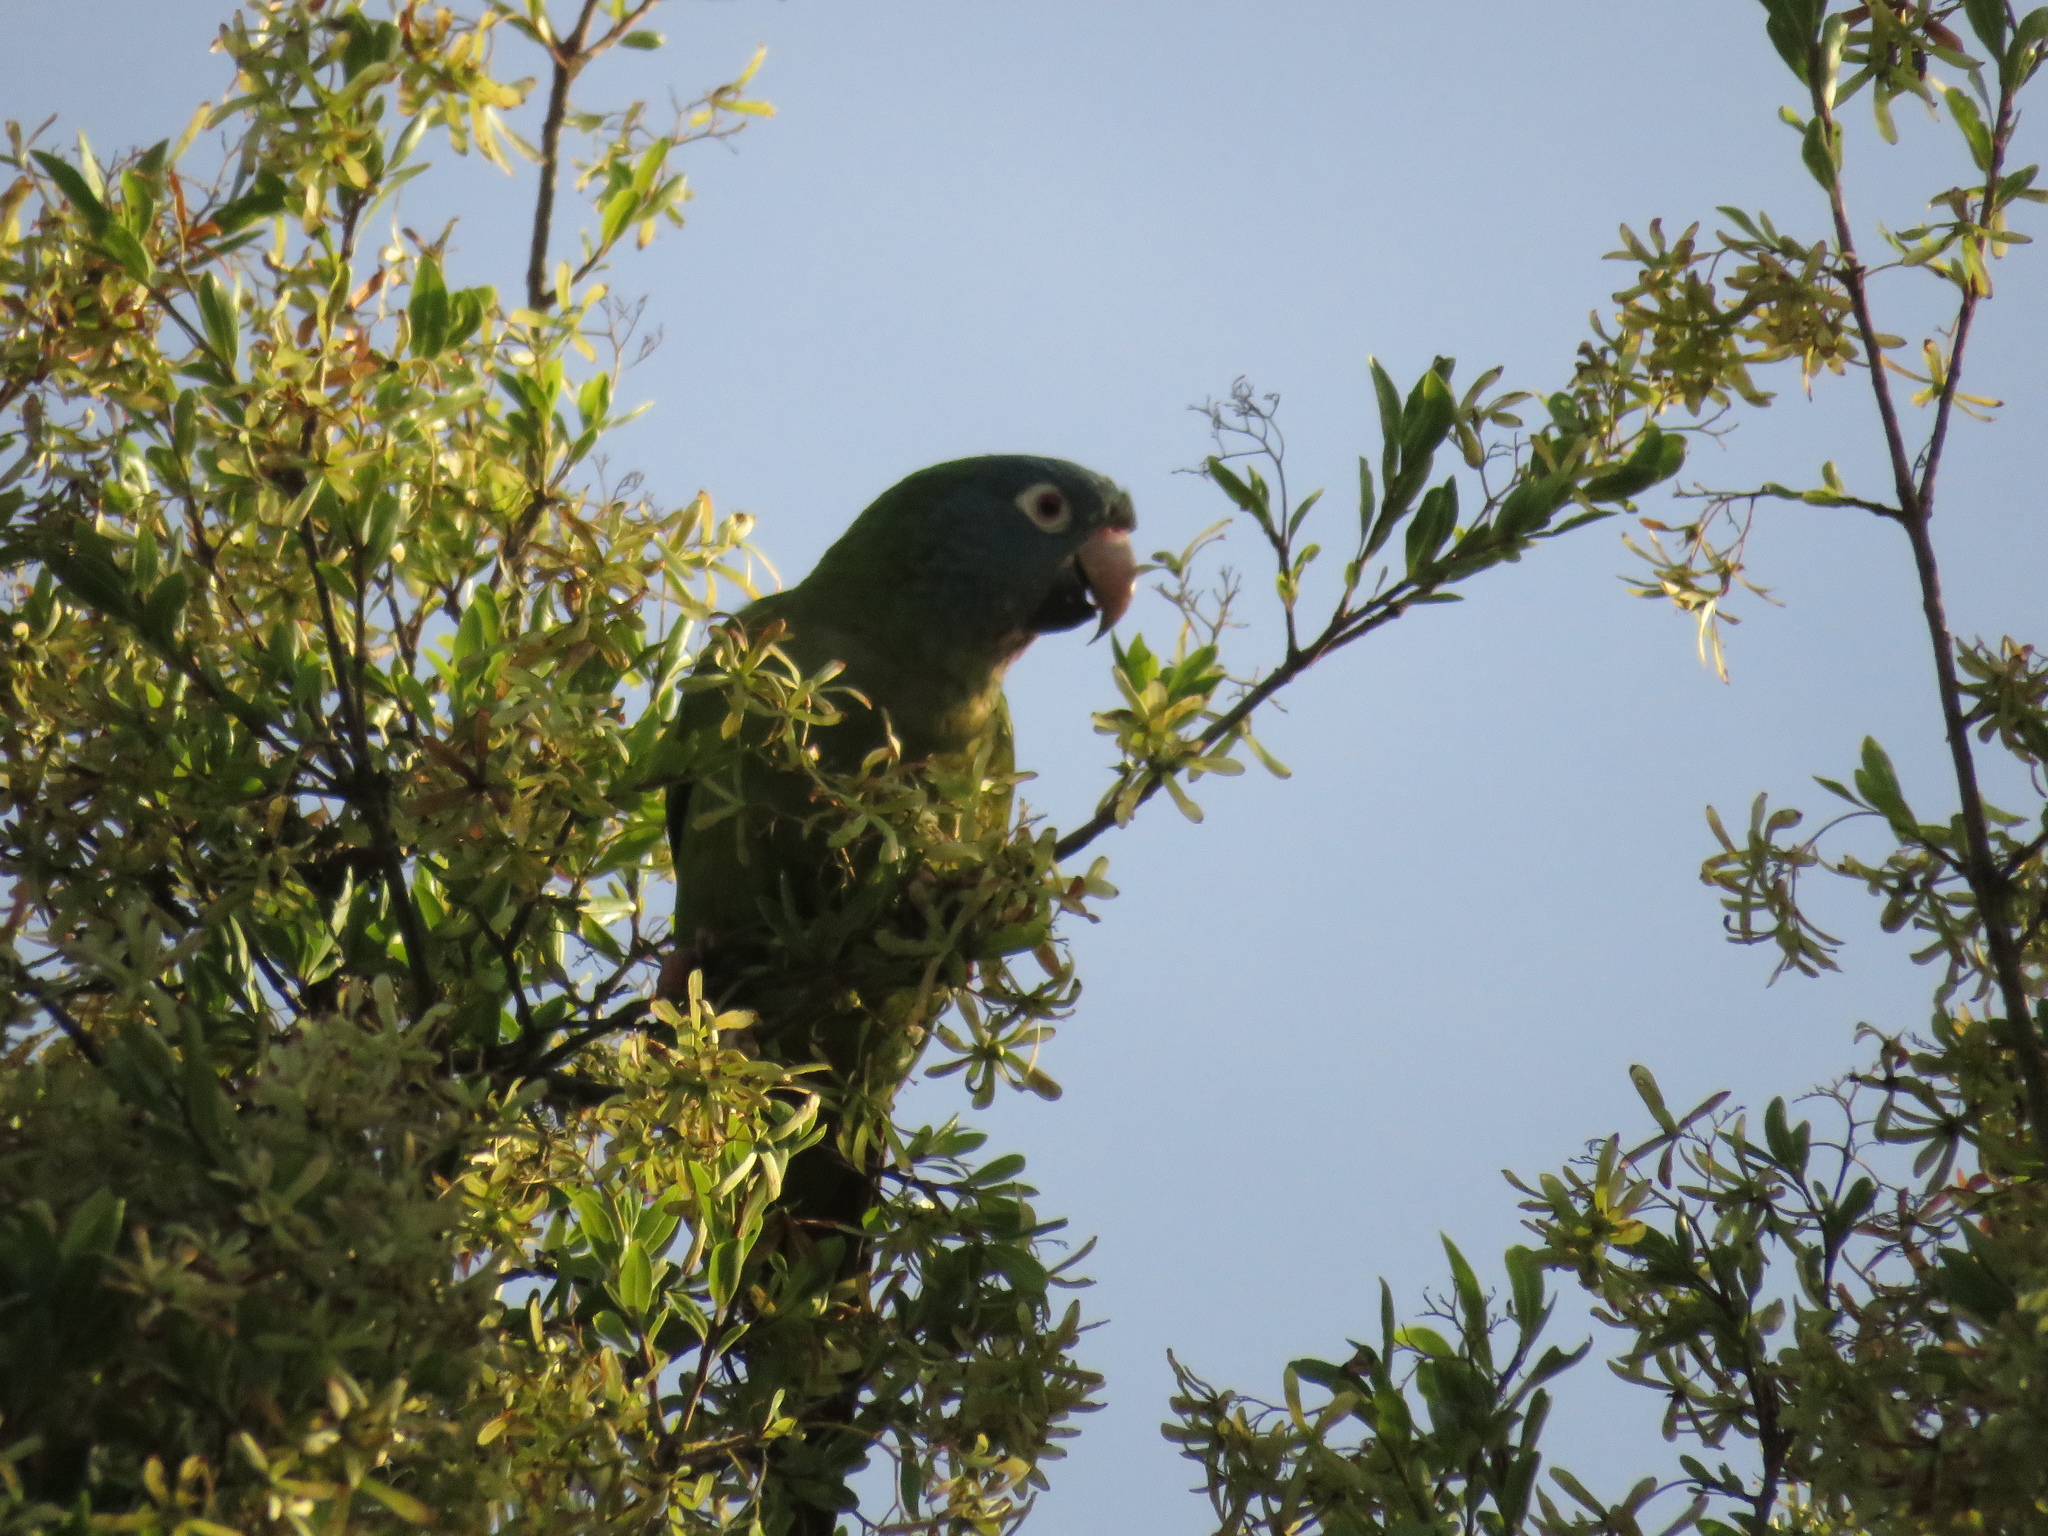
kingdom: Animalia
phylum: Chordata
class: Aves
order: Psittaciformes
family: Psittacidae
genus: Aratinga
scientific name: Aratinga acuticaudata
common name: Blue-crowned parakeet
